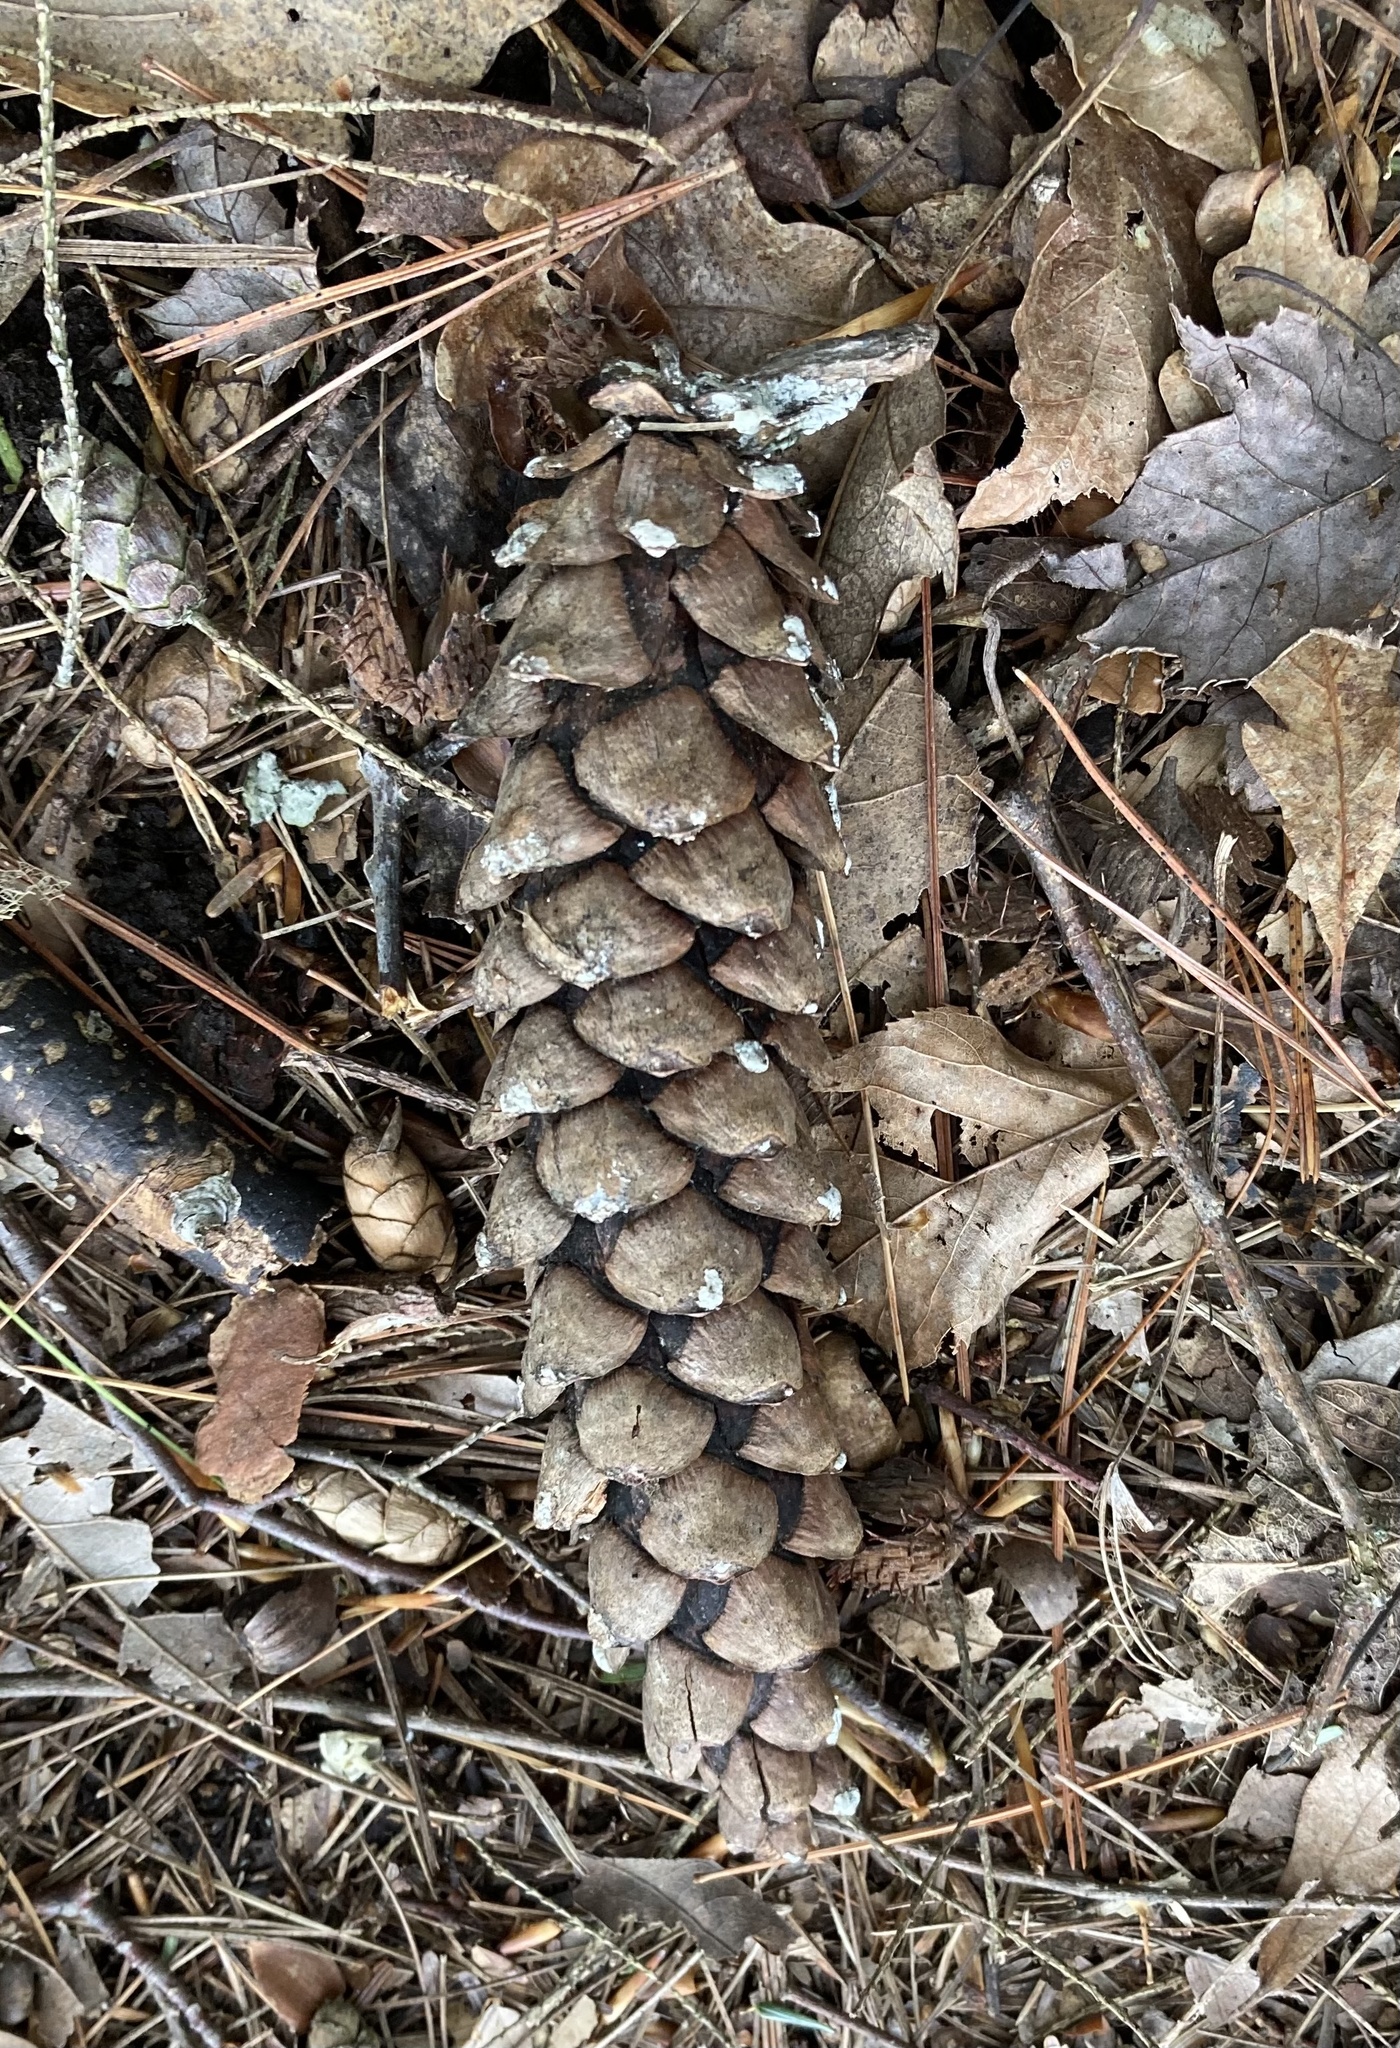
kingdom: Plantae
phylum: Tracheophyta
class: Pinopsida
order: Pinales
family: Pinaceae
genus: Pinus
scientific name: Pinus strobus
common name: Weymouth pine
